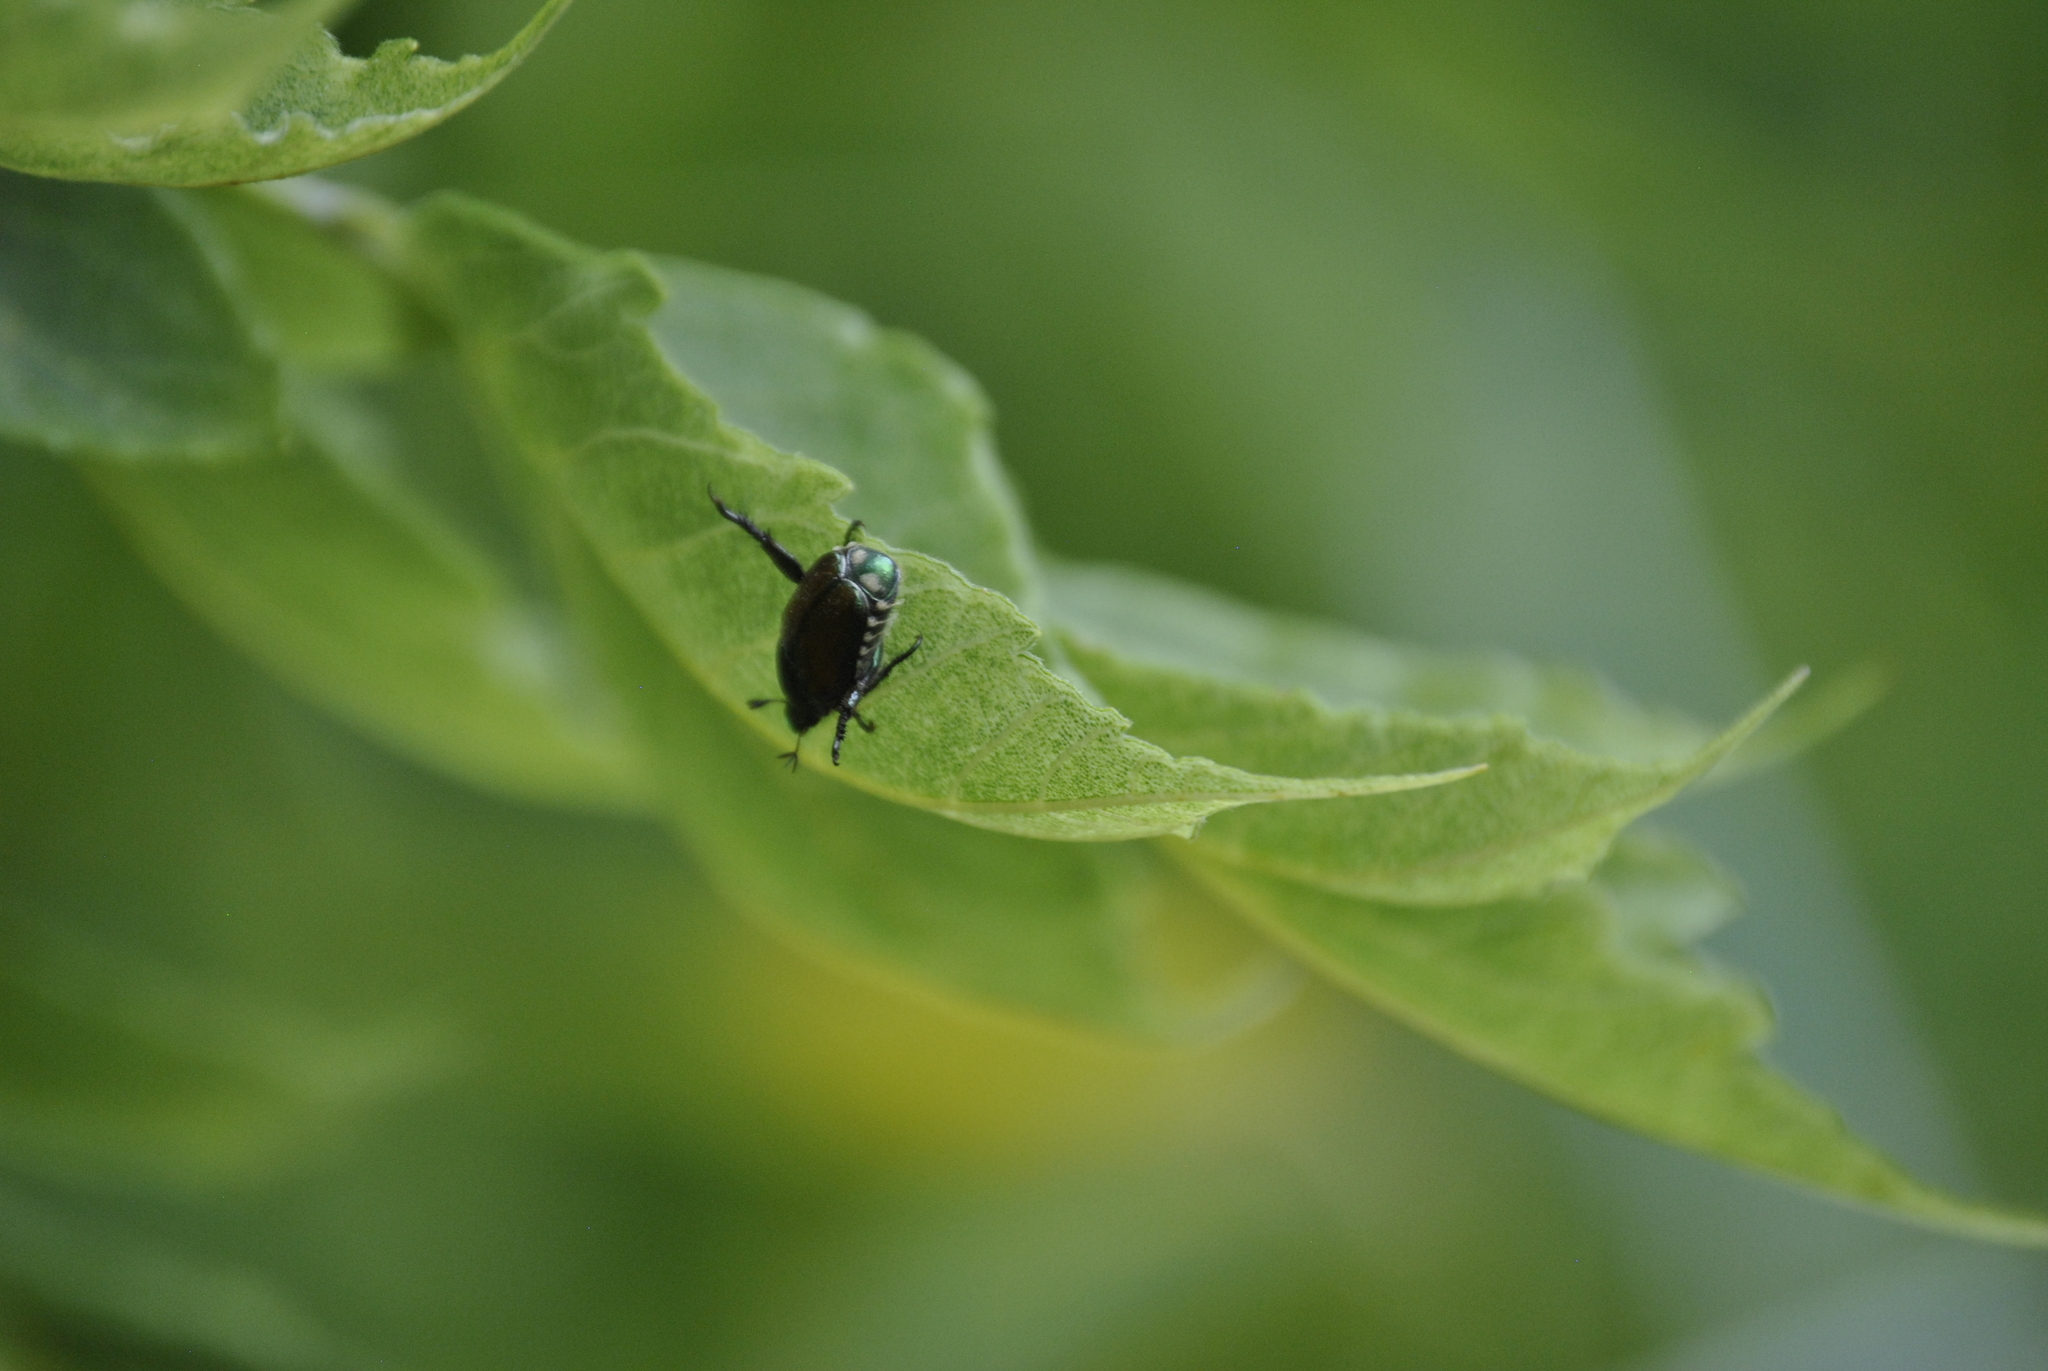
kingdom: Animalia
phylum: Arthropoda
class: Insecta
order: Coleoptera
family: Scarabaeidae
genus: Popillia
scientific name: Popillia japonica
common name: Japanese beetle
